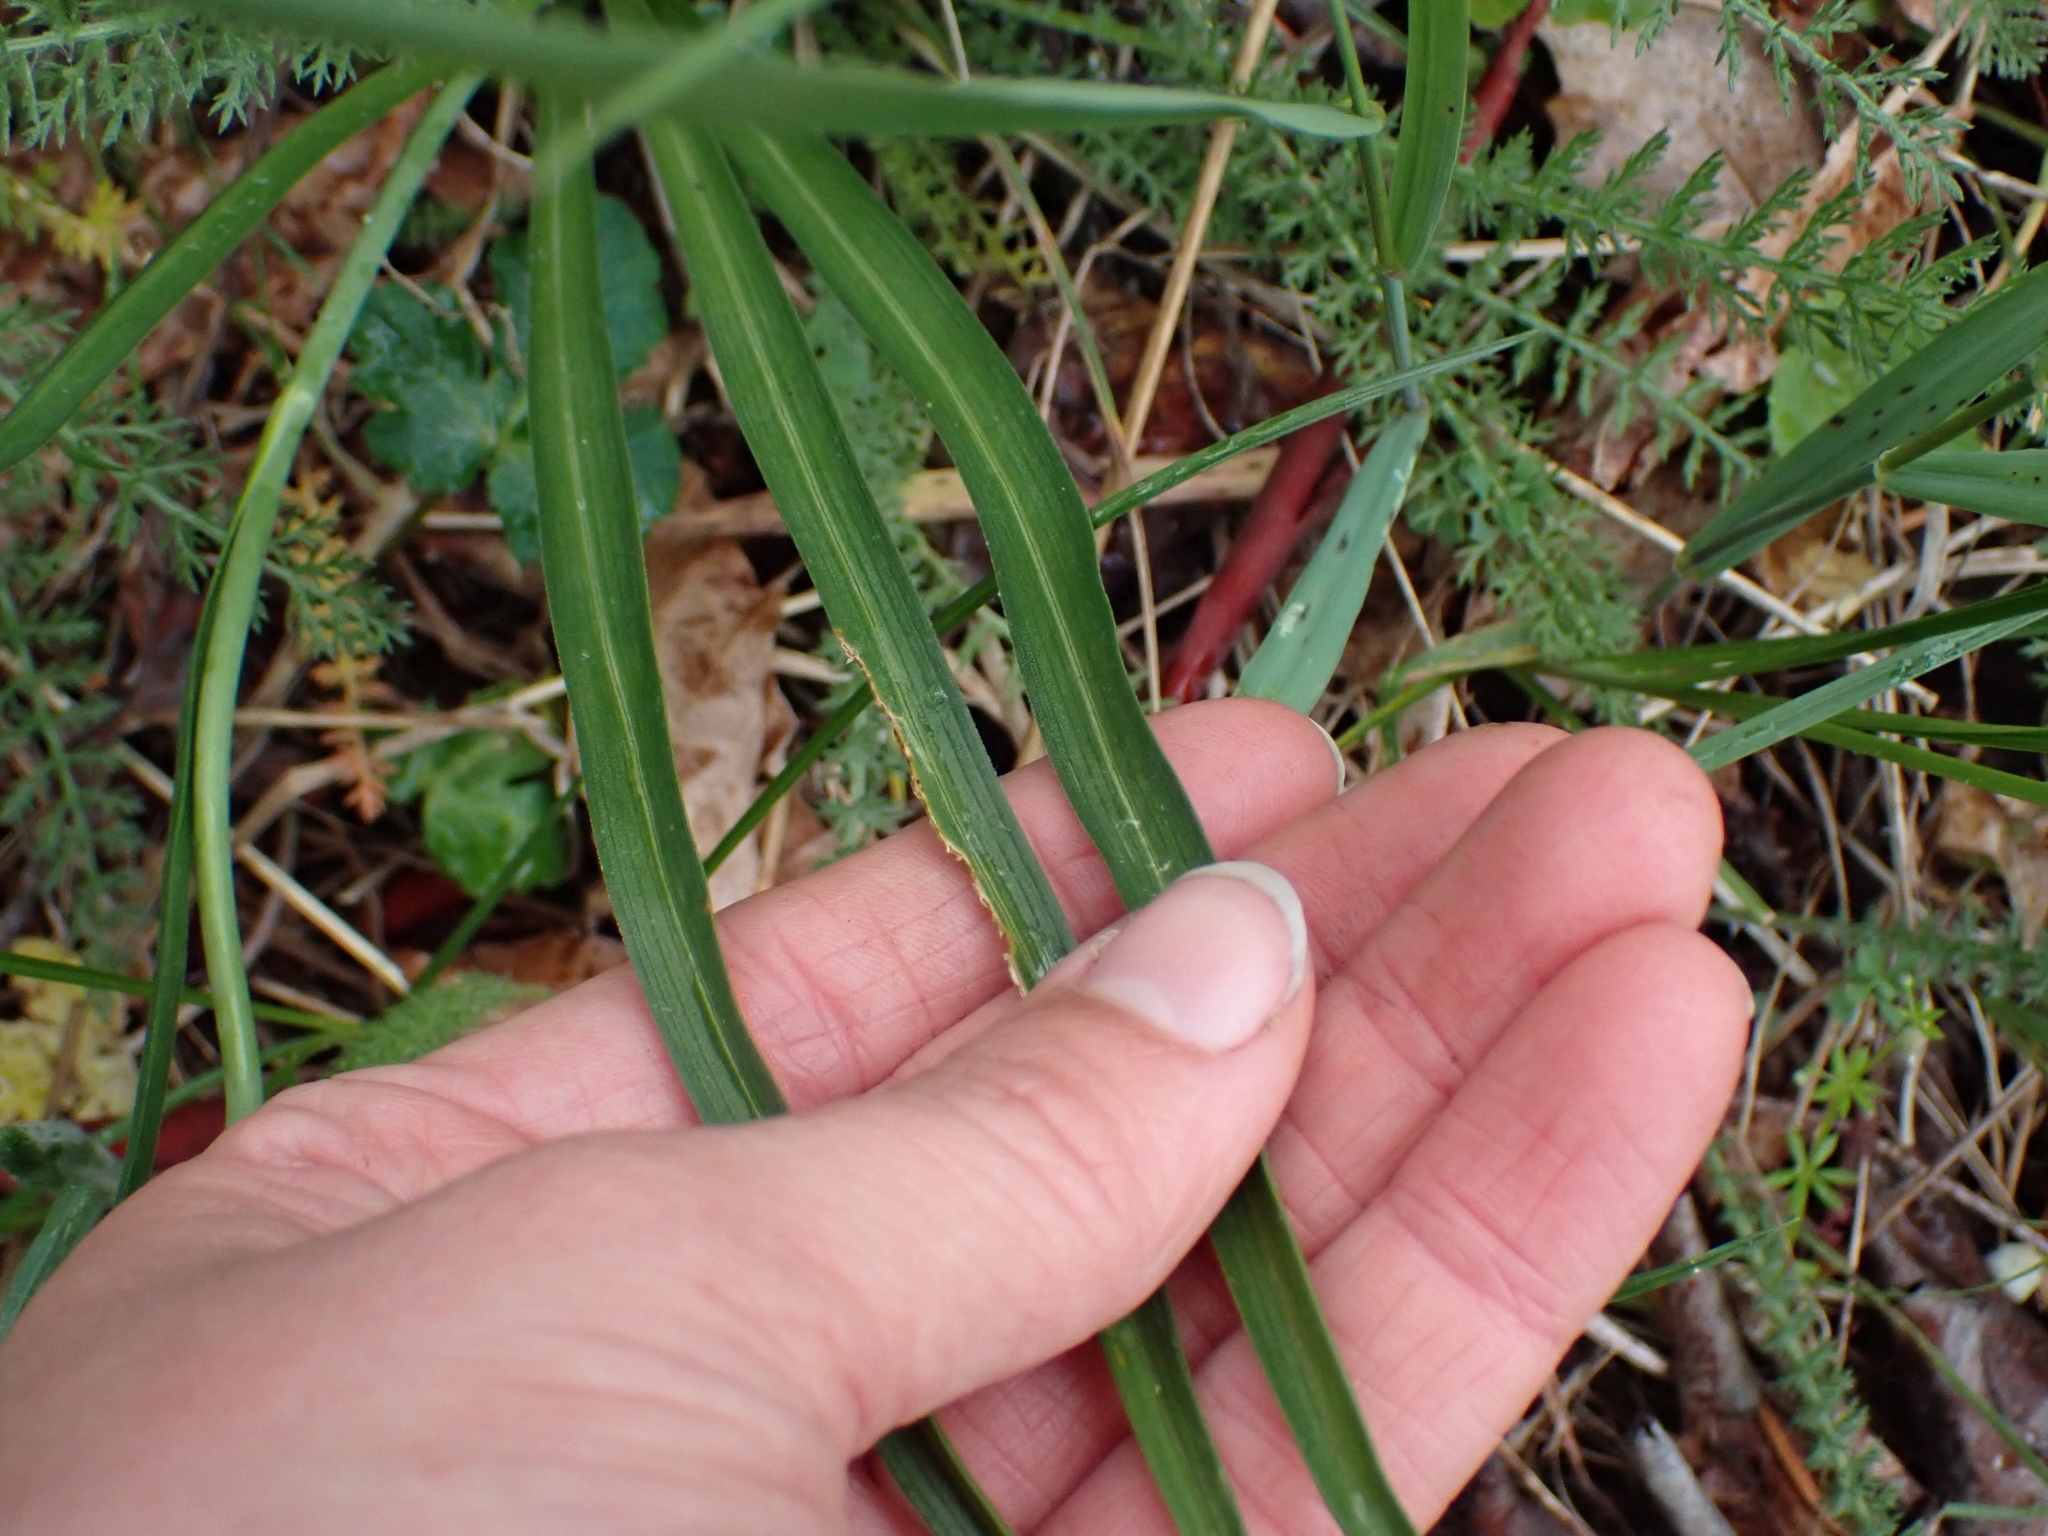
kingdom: Plantae
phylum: Tracheophyta
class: Liliopsida
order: Liliales
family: Melanthiaceae
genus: Toxicoscordion
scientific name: Toxicoscordion venenosum
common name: Meadow death camas
